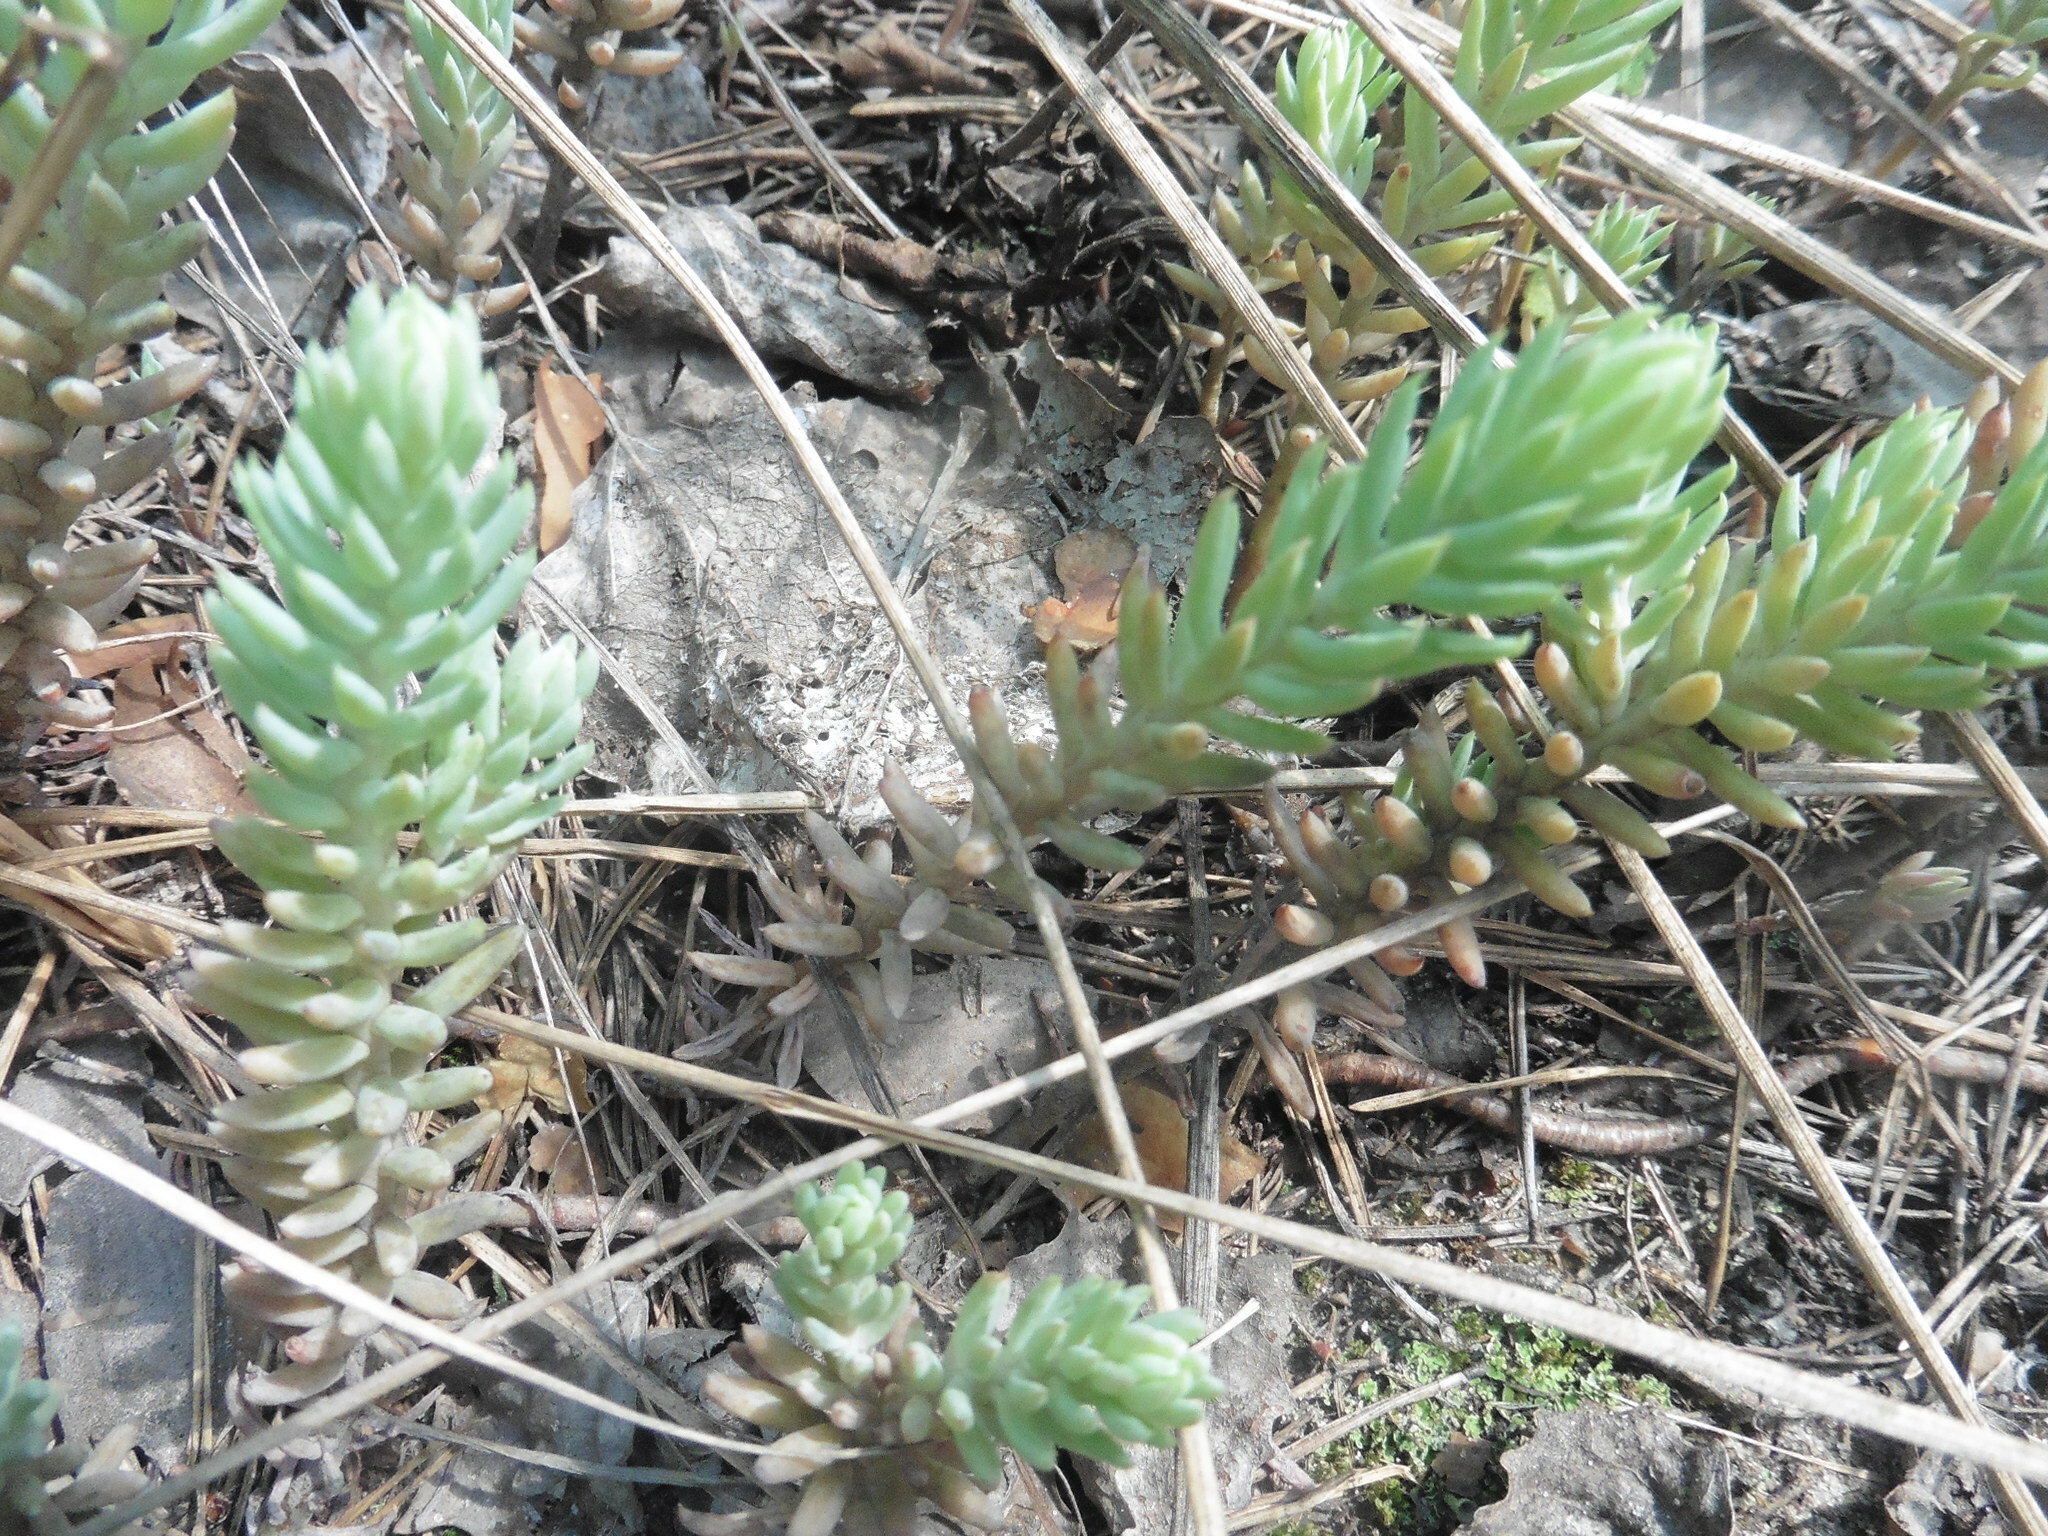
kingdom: Plantae
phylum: Tracheophyta
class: Magnoliopsida
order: Saxifragales
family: Crassulaceae
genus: Petrosedum
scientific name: Petrosedum rupestre
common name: Jenny's stonecrop
